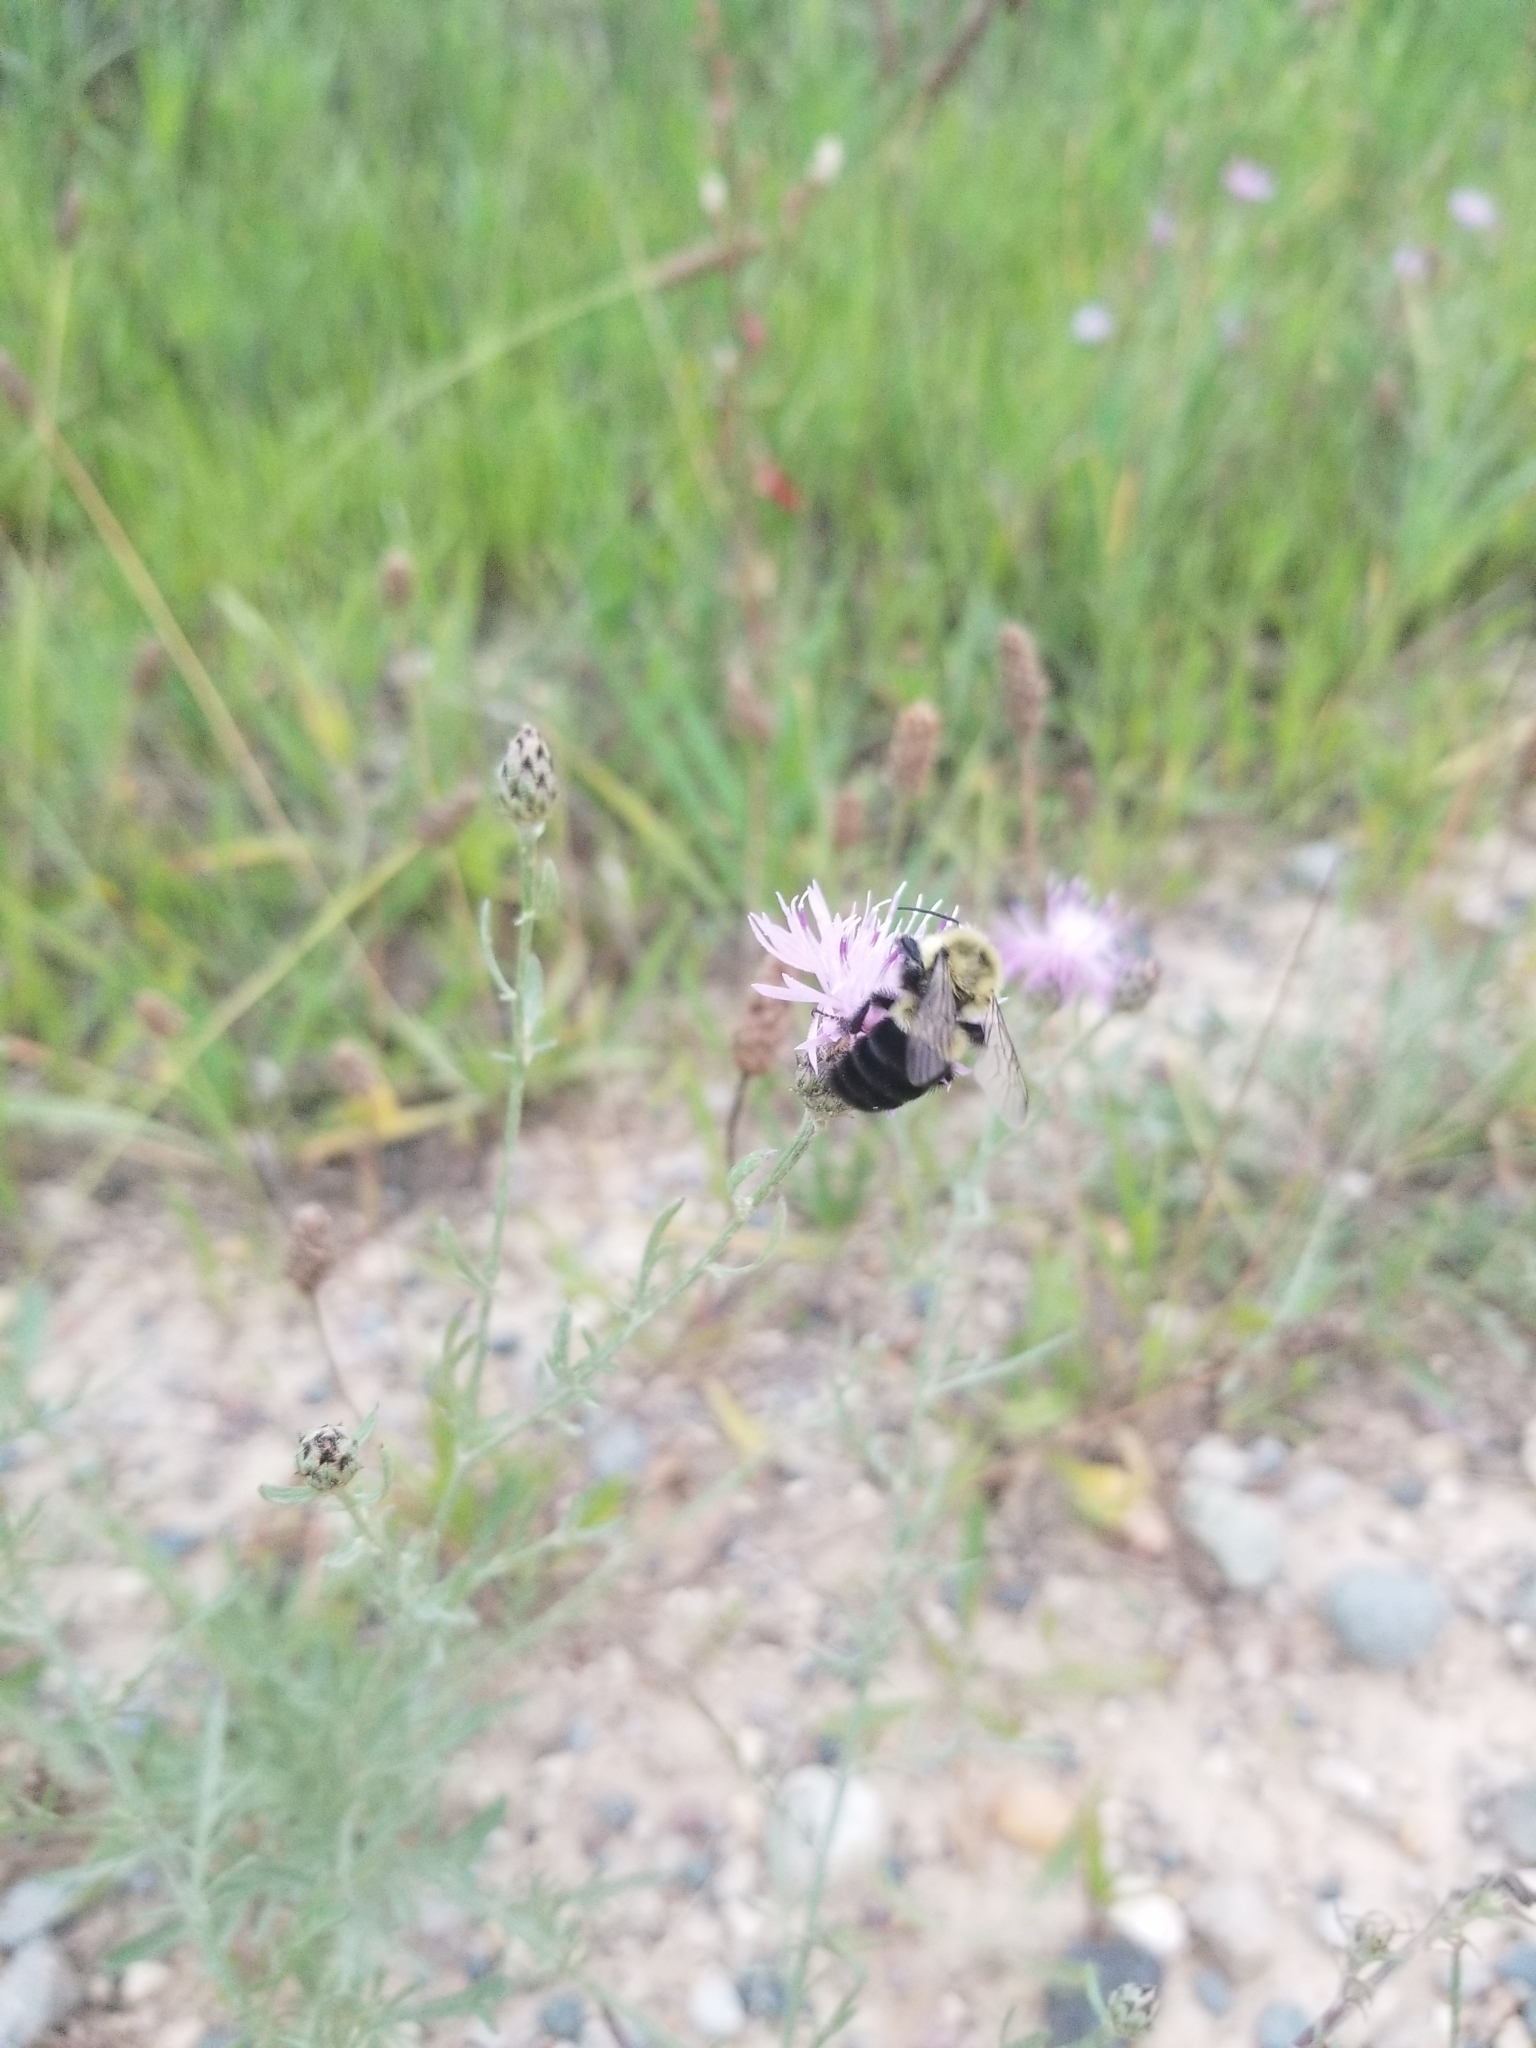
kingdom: Animalia
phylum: Arthropoda
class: Insecta
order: Hymenoptera
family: Apidae
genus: Bombus
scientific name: Bombus impatiens
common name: Common eastern bumble bee
